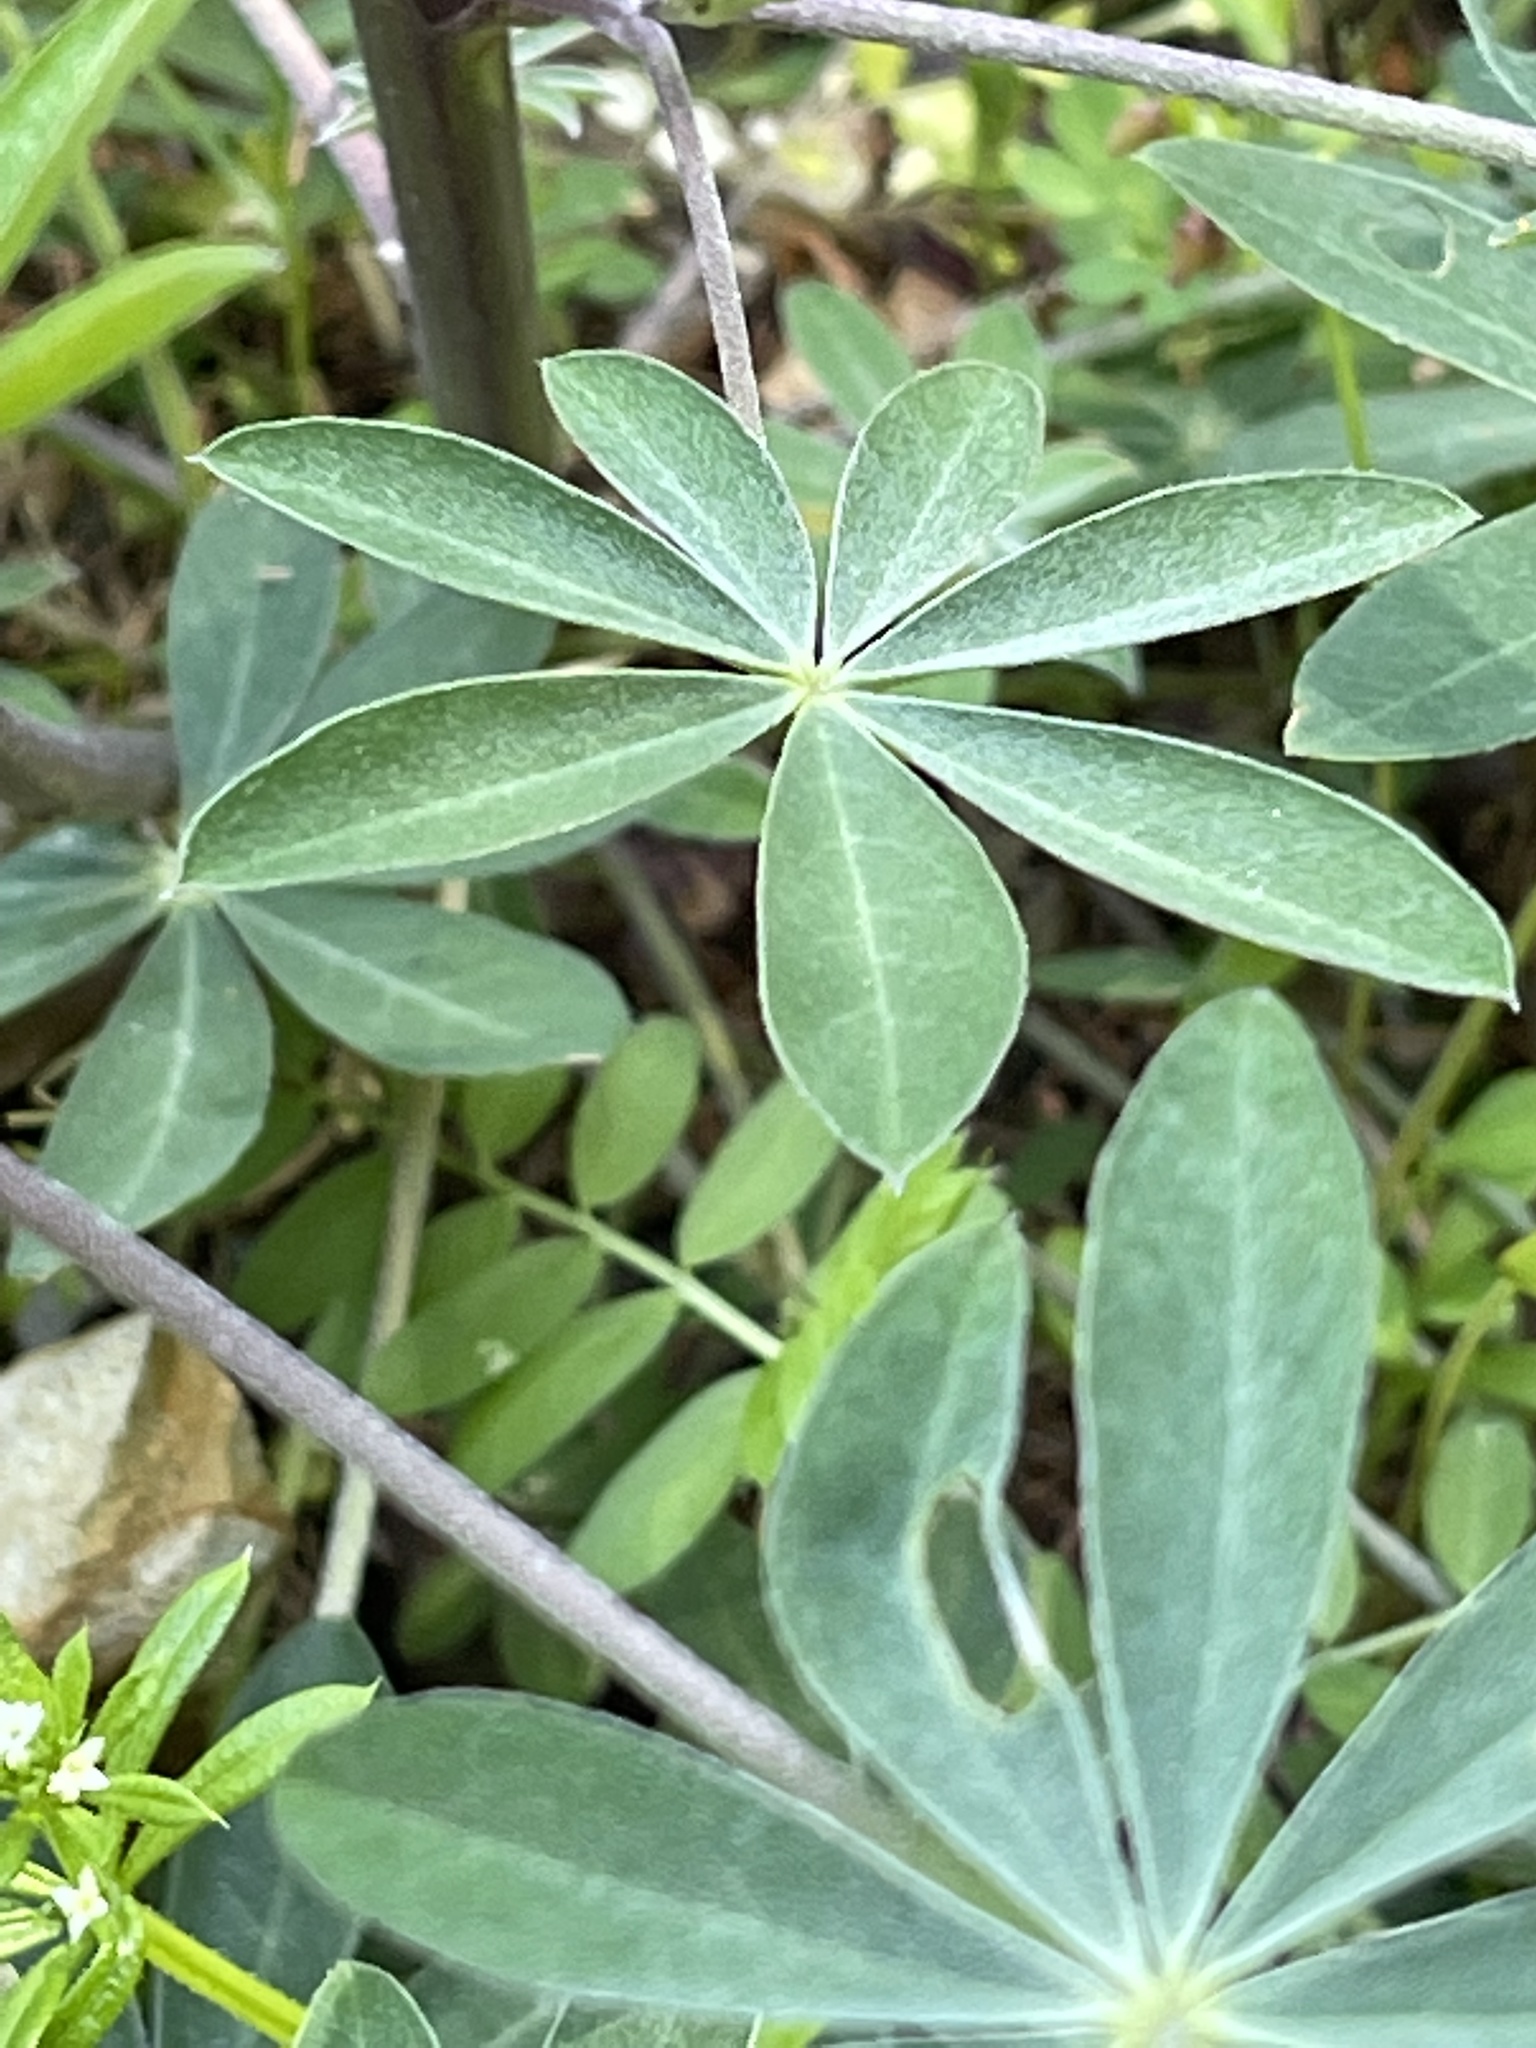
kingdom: Plantae
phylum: Tracheophyta
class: Magnoliopsida
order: Fabales
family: Fabaceae
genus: Lupinus
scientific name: Lupinus latifolius
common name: Broad-leaved lupine
